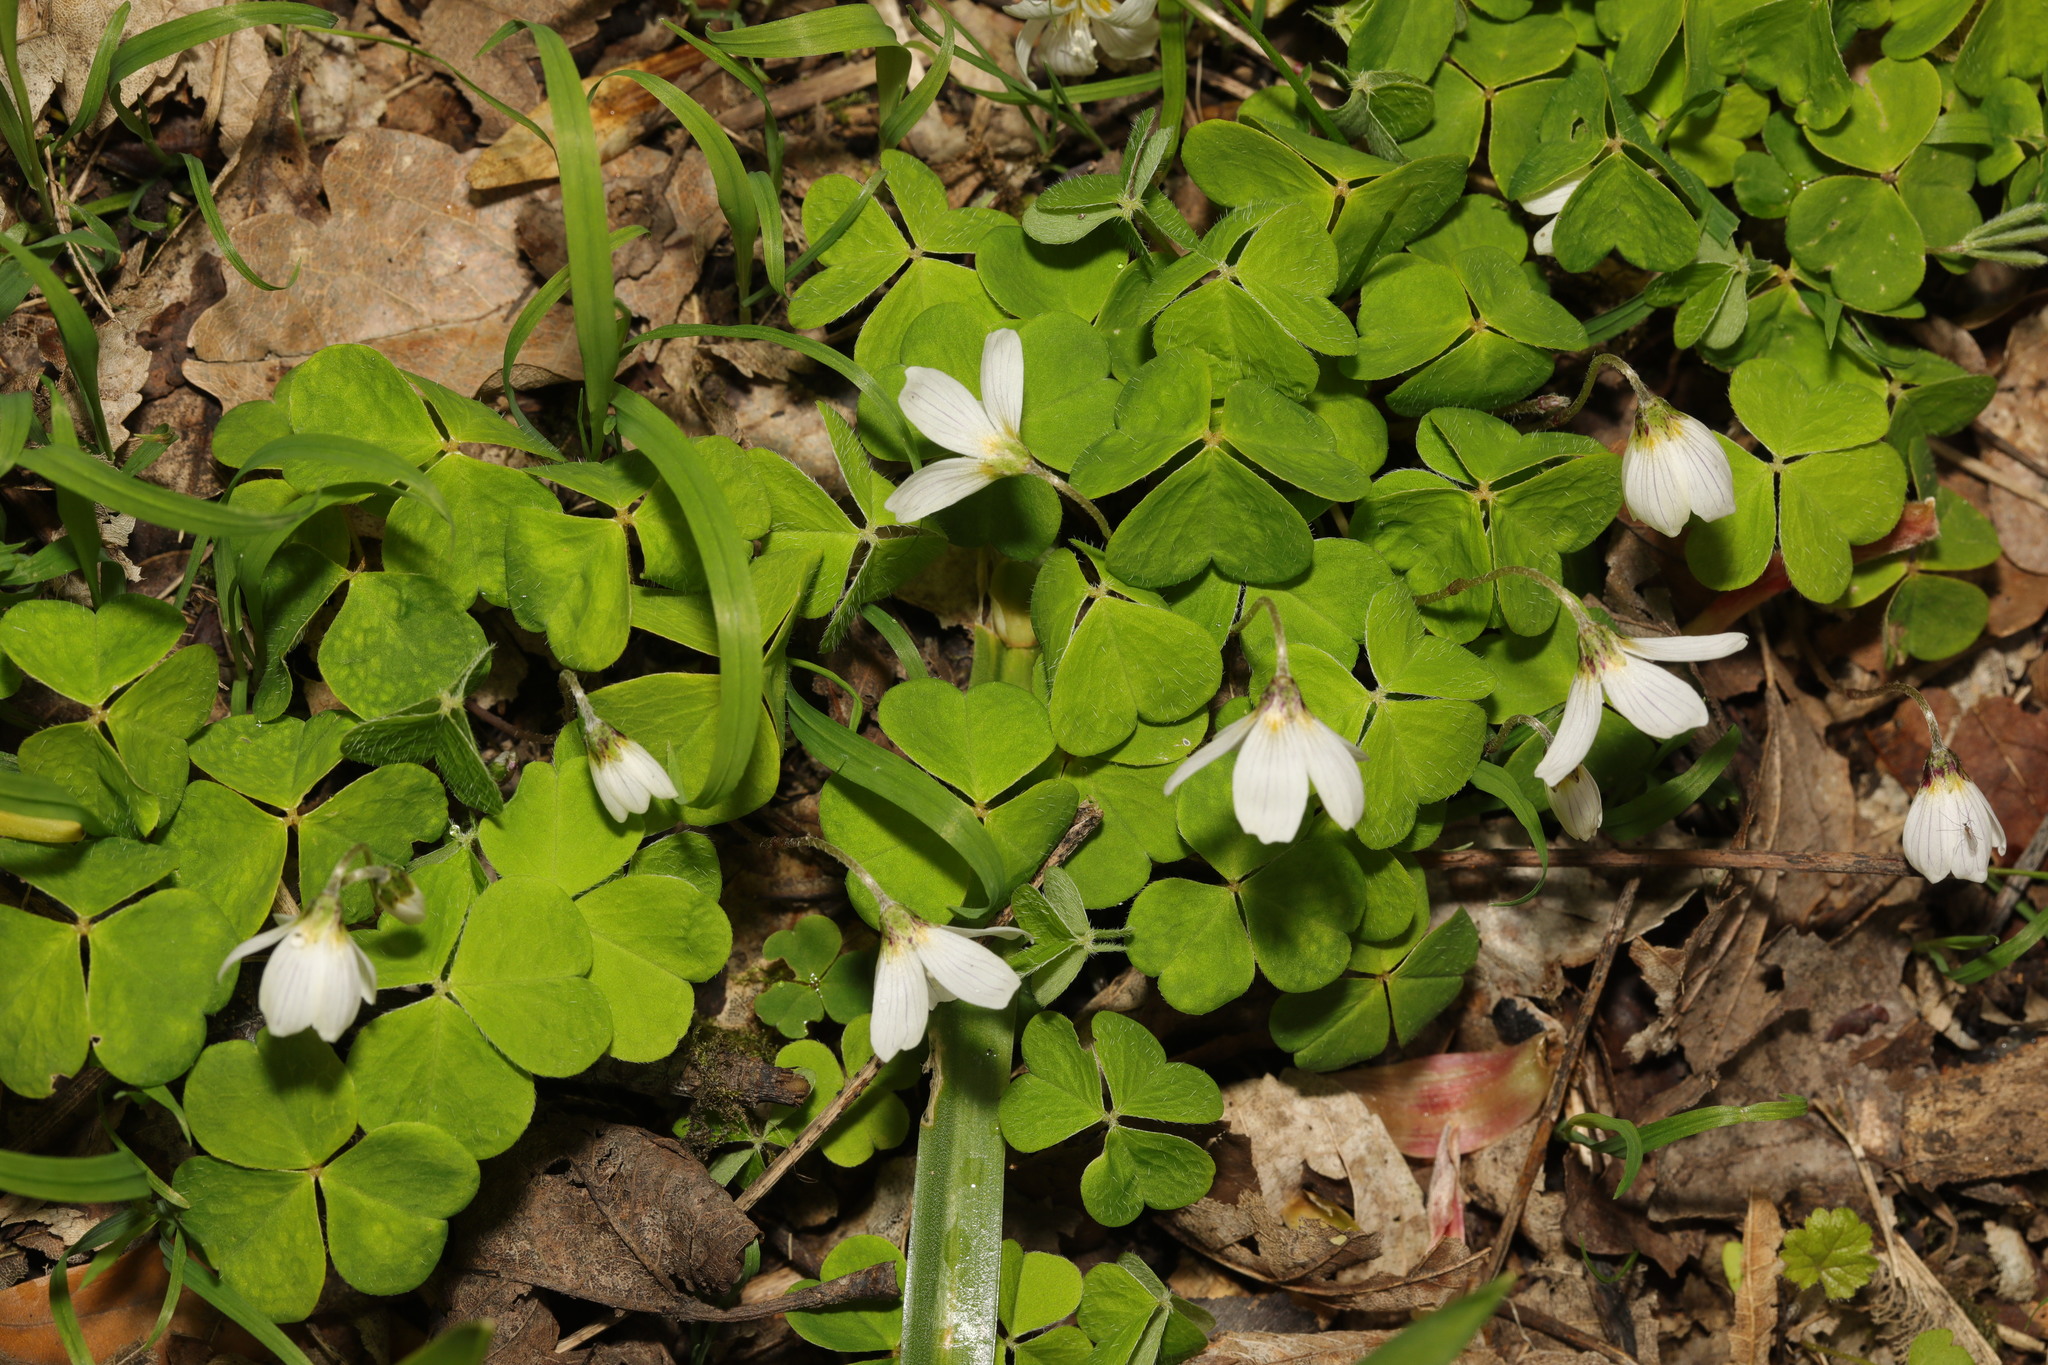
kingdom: Plantae
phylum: Tracheophyta
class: Magnoliopsida
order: Oxalidales
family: Oxalidaceae
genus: Oxalis
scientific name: Oxalis acetosella
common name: Wood-sorrel
